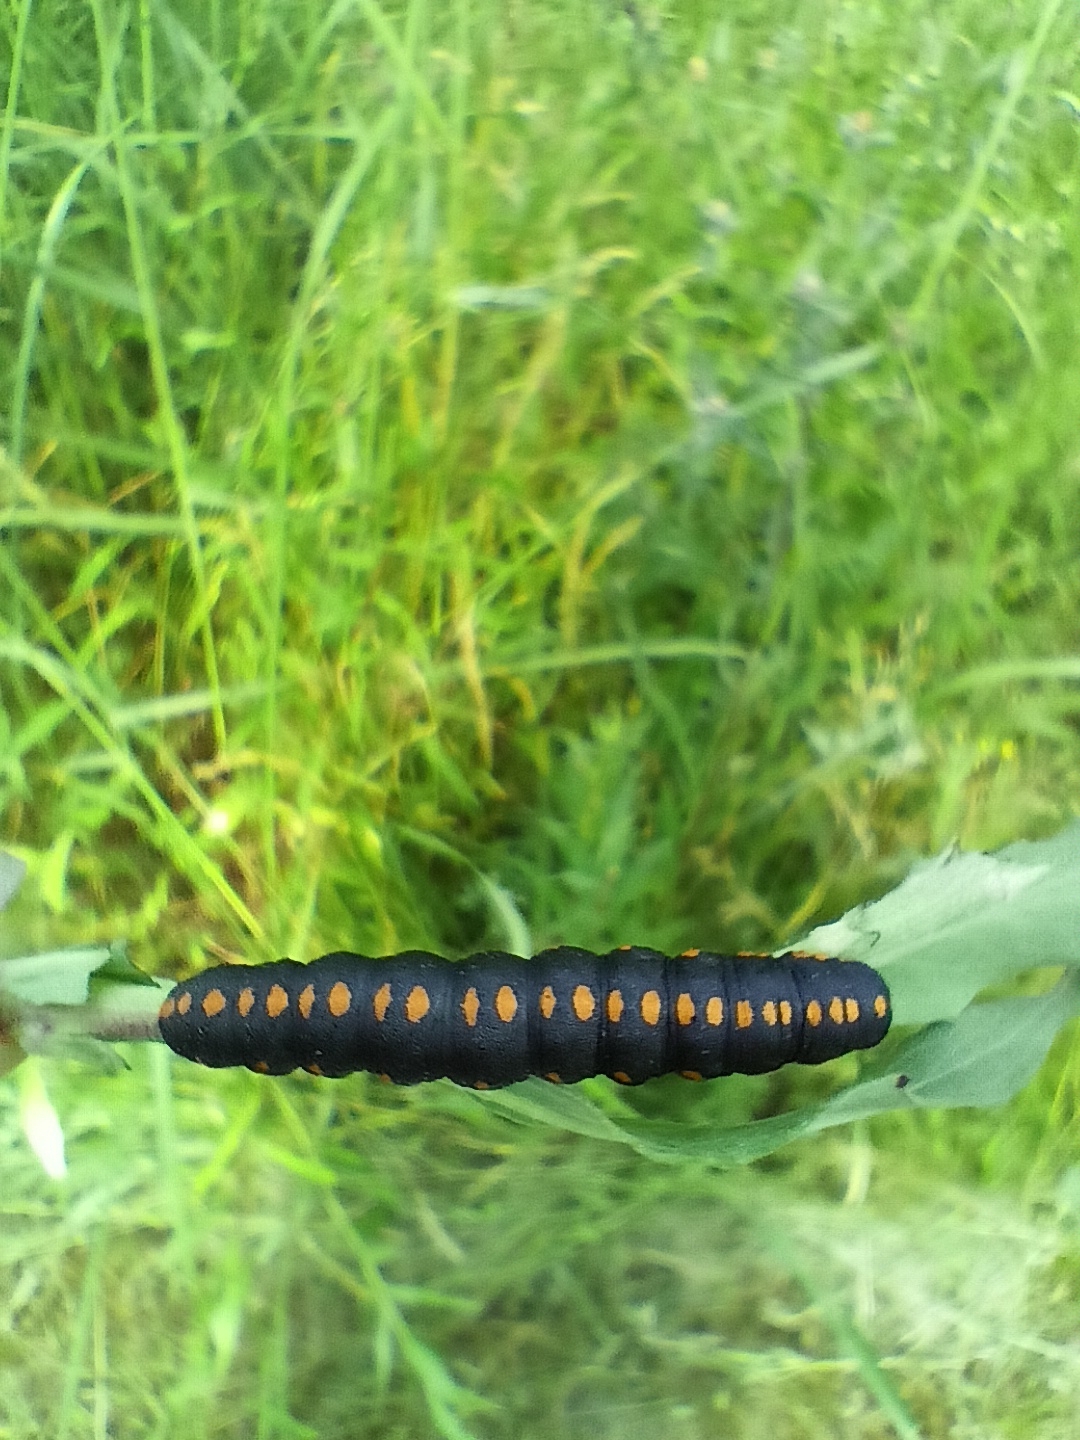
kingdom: Animalia
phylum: Arthropoda
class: Insecta
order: Lepidoptera
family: Noctuidae
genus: Cucullia
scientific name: Cucullia lucifuga
